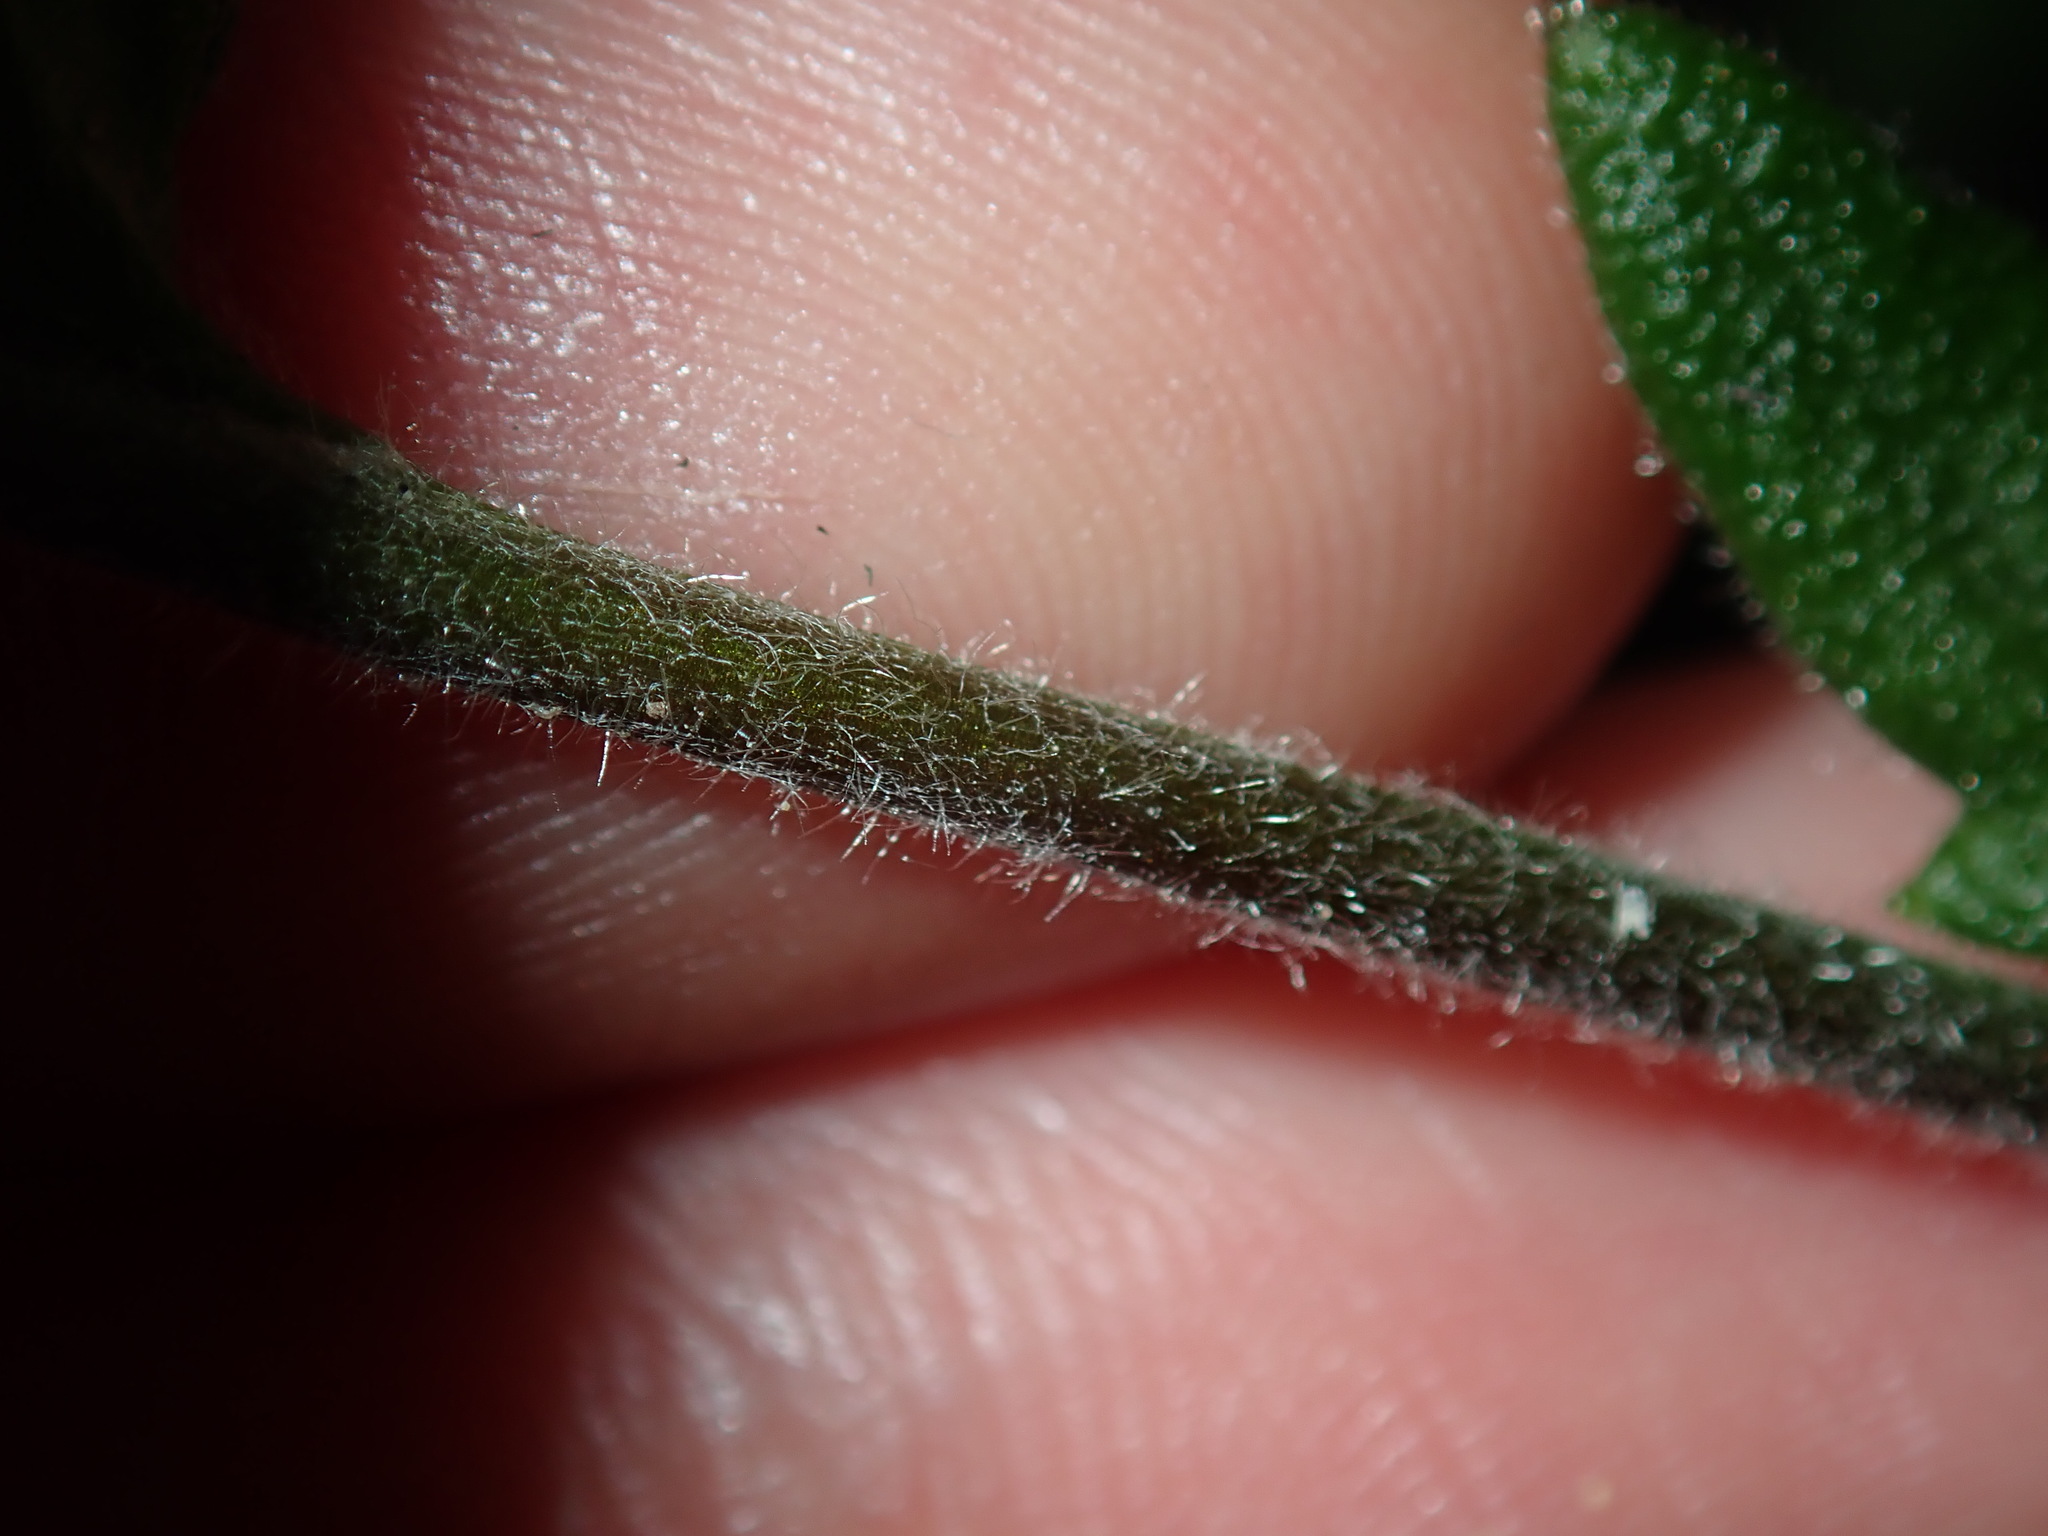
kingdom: Plantae
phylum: Tracheophyta
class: Magnoliopsida
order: Asterales
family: Goodeniaceae
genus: Goodenia
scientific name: Goodenia heterophylla
